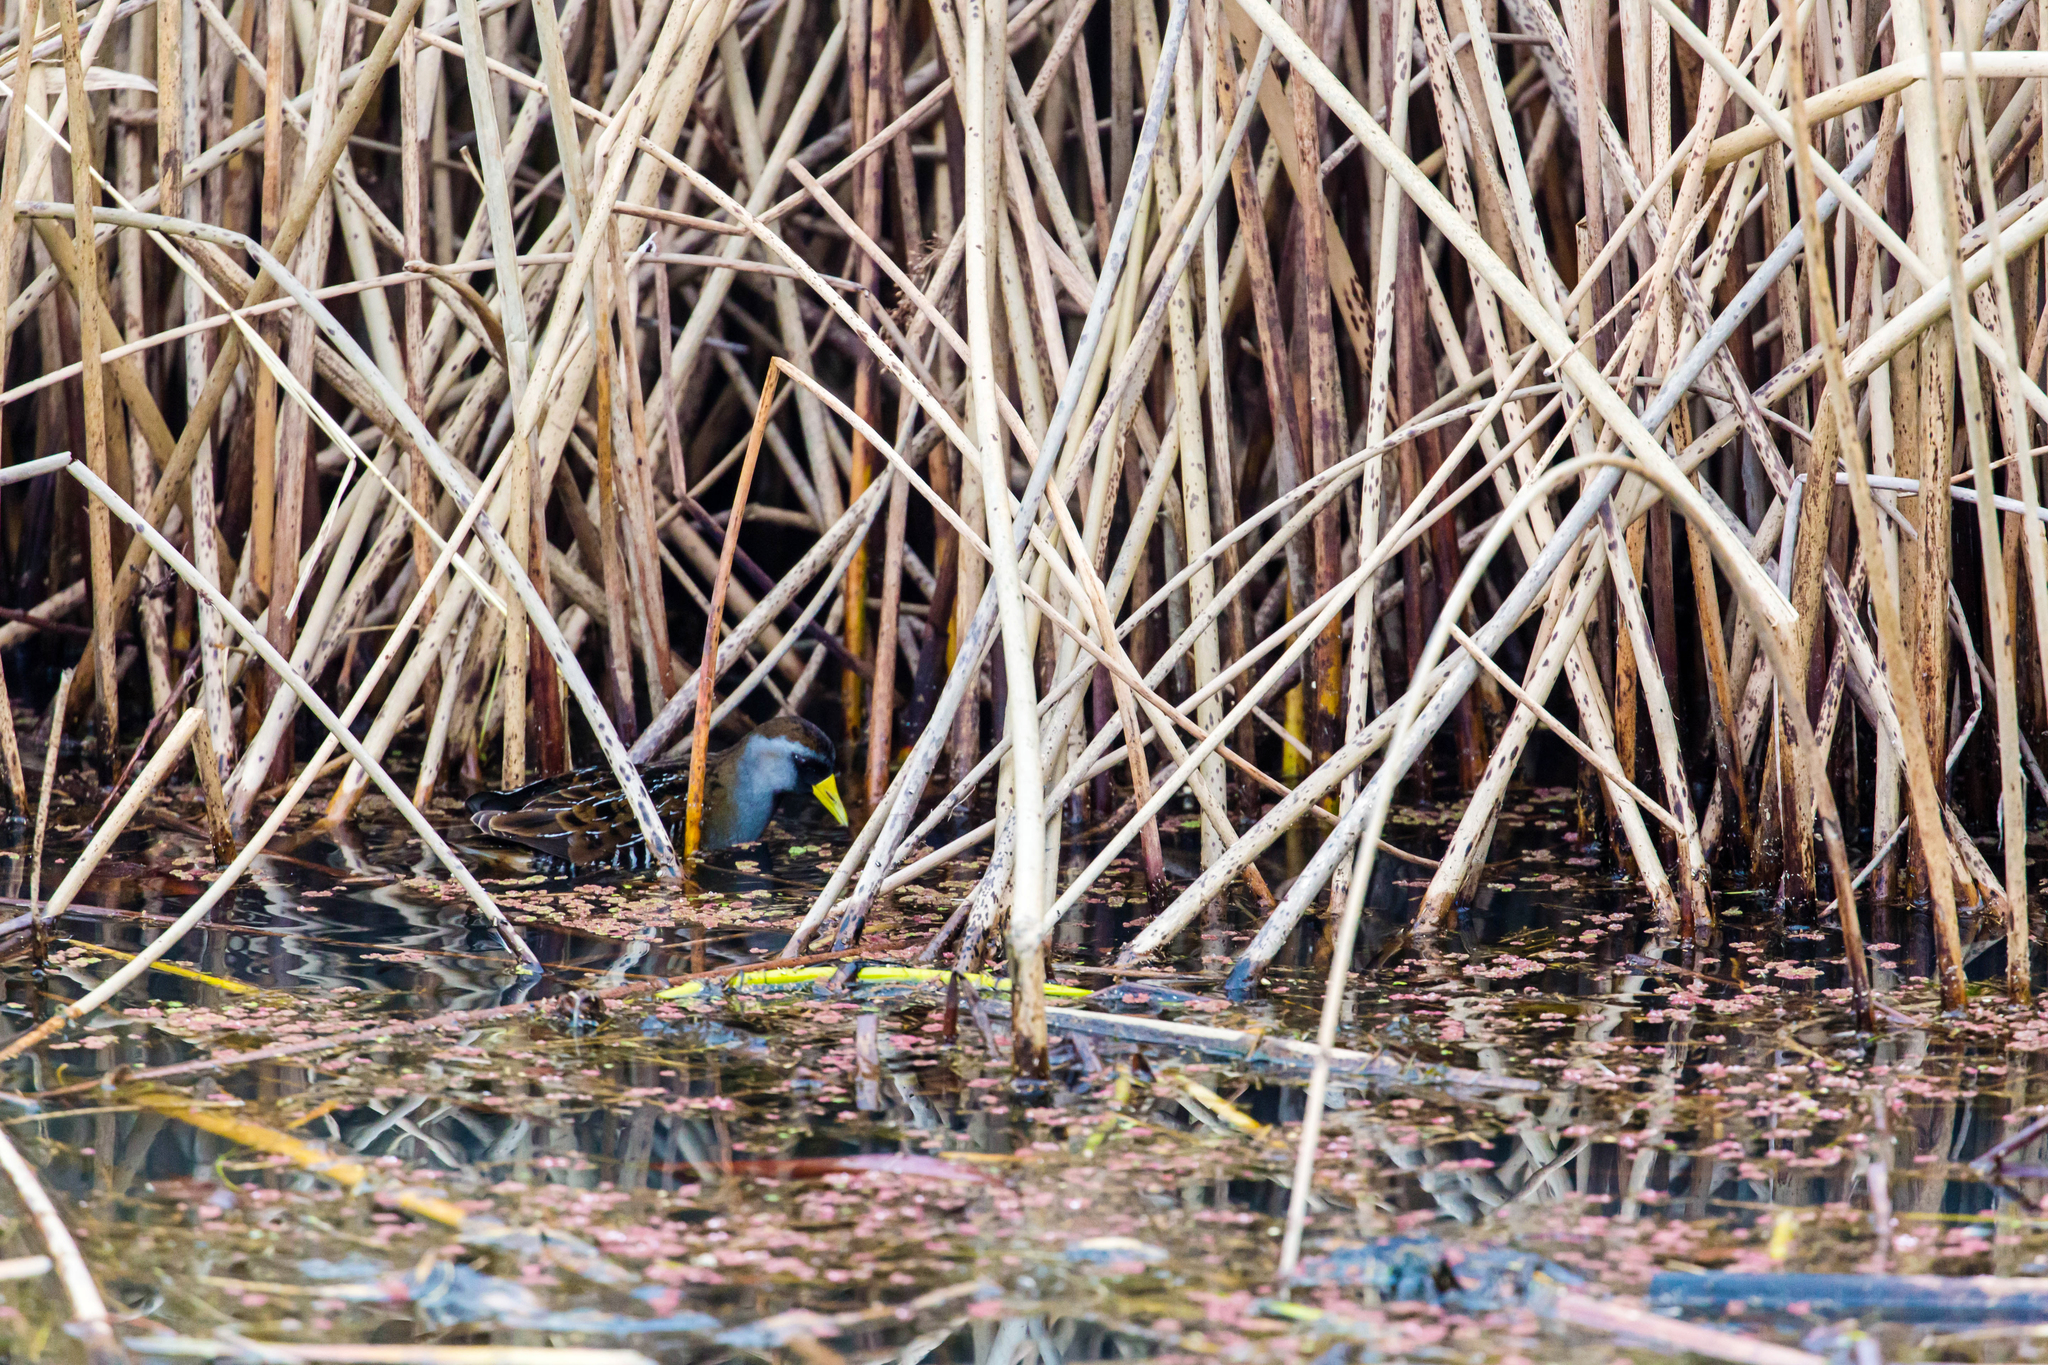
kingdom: Animalia
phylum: Chordata
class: Aves
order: Gruiformes
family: Rallidae
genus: Porzana
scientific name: Porzana carolina
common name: Sora
